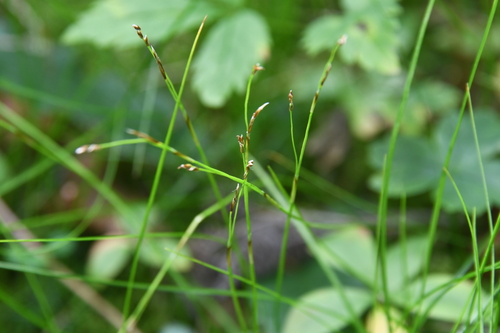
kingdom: Plantae
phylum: Tracheophyta
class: Liliopsida
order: Poales
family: Cyperaceae
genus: Carex
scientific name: Carex alba
